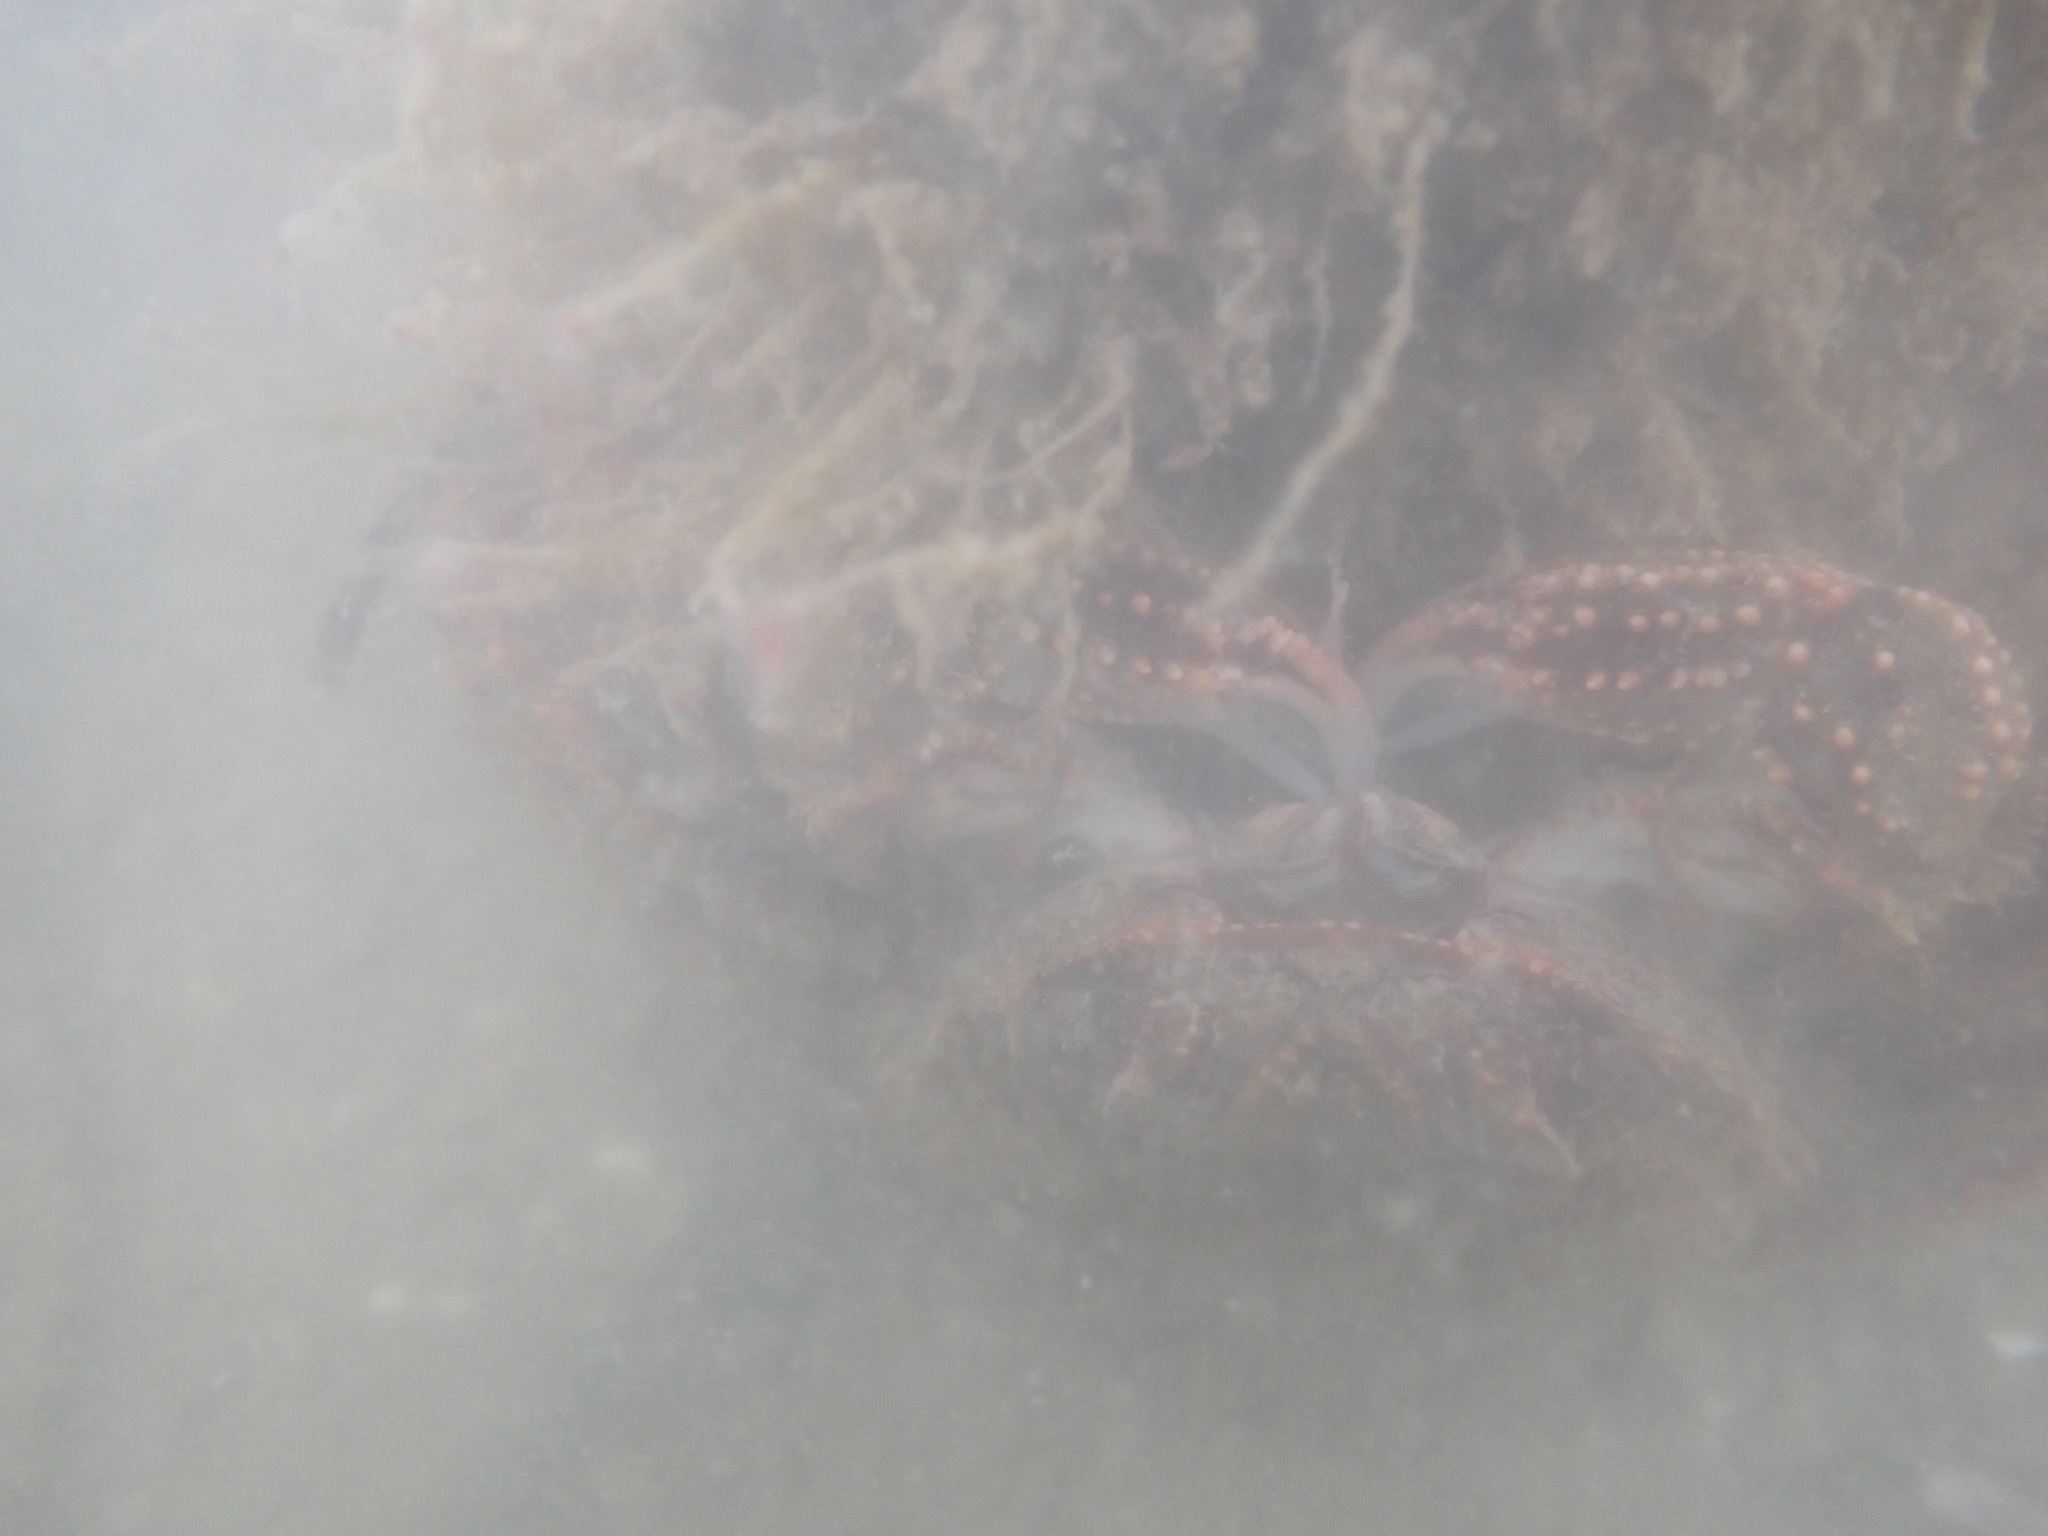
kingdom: Animalia
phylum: Arthropoda
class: Malacostraca
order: Decapoda
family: Plagusiidae
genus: Guinusia
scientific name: Guinusia chabrus
